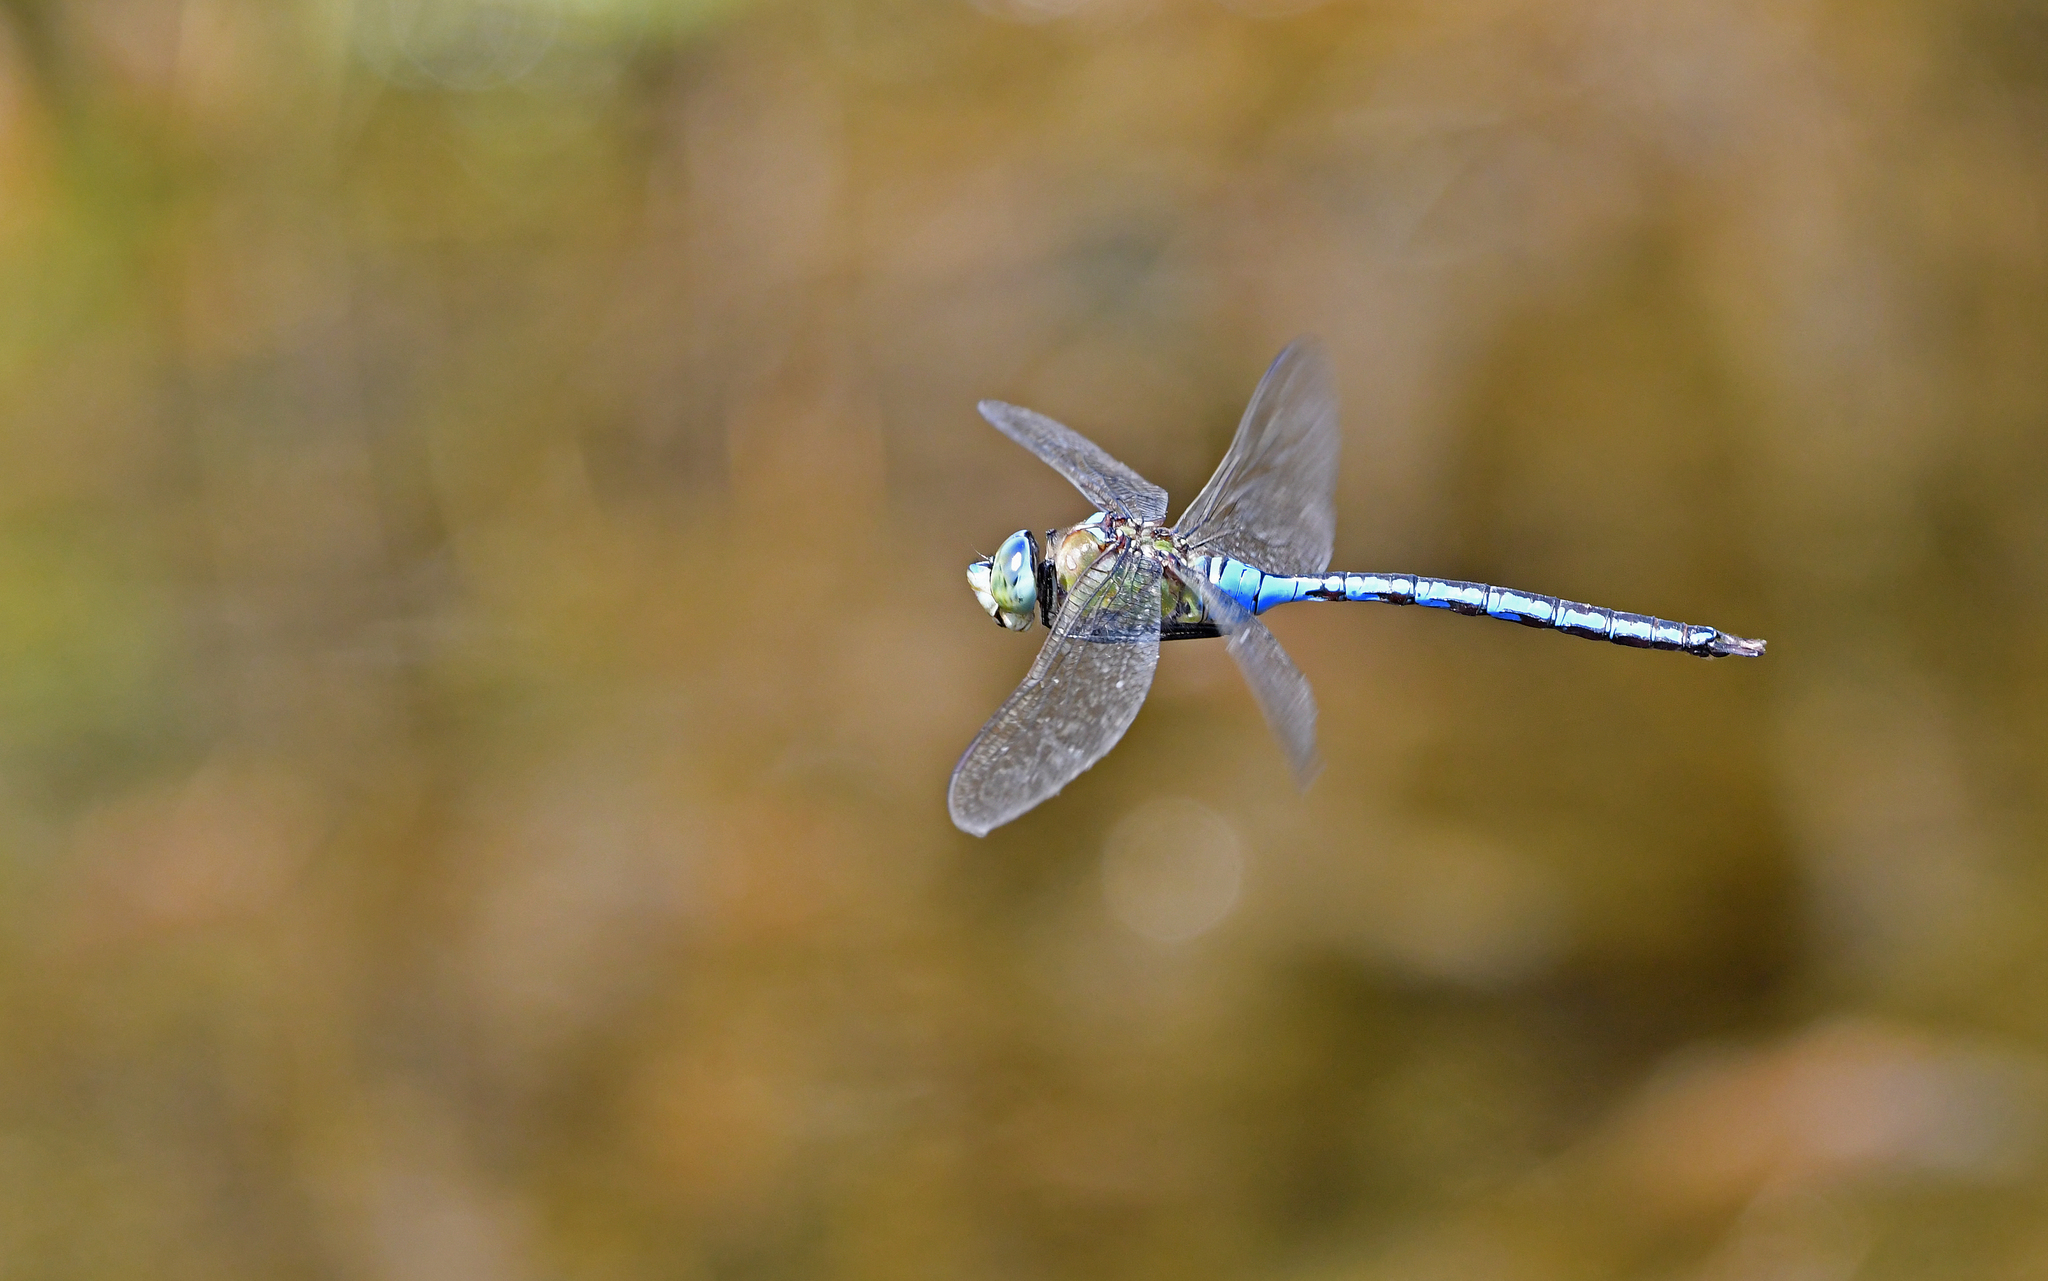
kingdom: Animalia
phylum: Arthropoda
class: Insecta
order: Odonata
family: Aeshnidae
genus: Anax
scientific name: Anax imperator
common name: Emperor dragonfly
